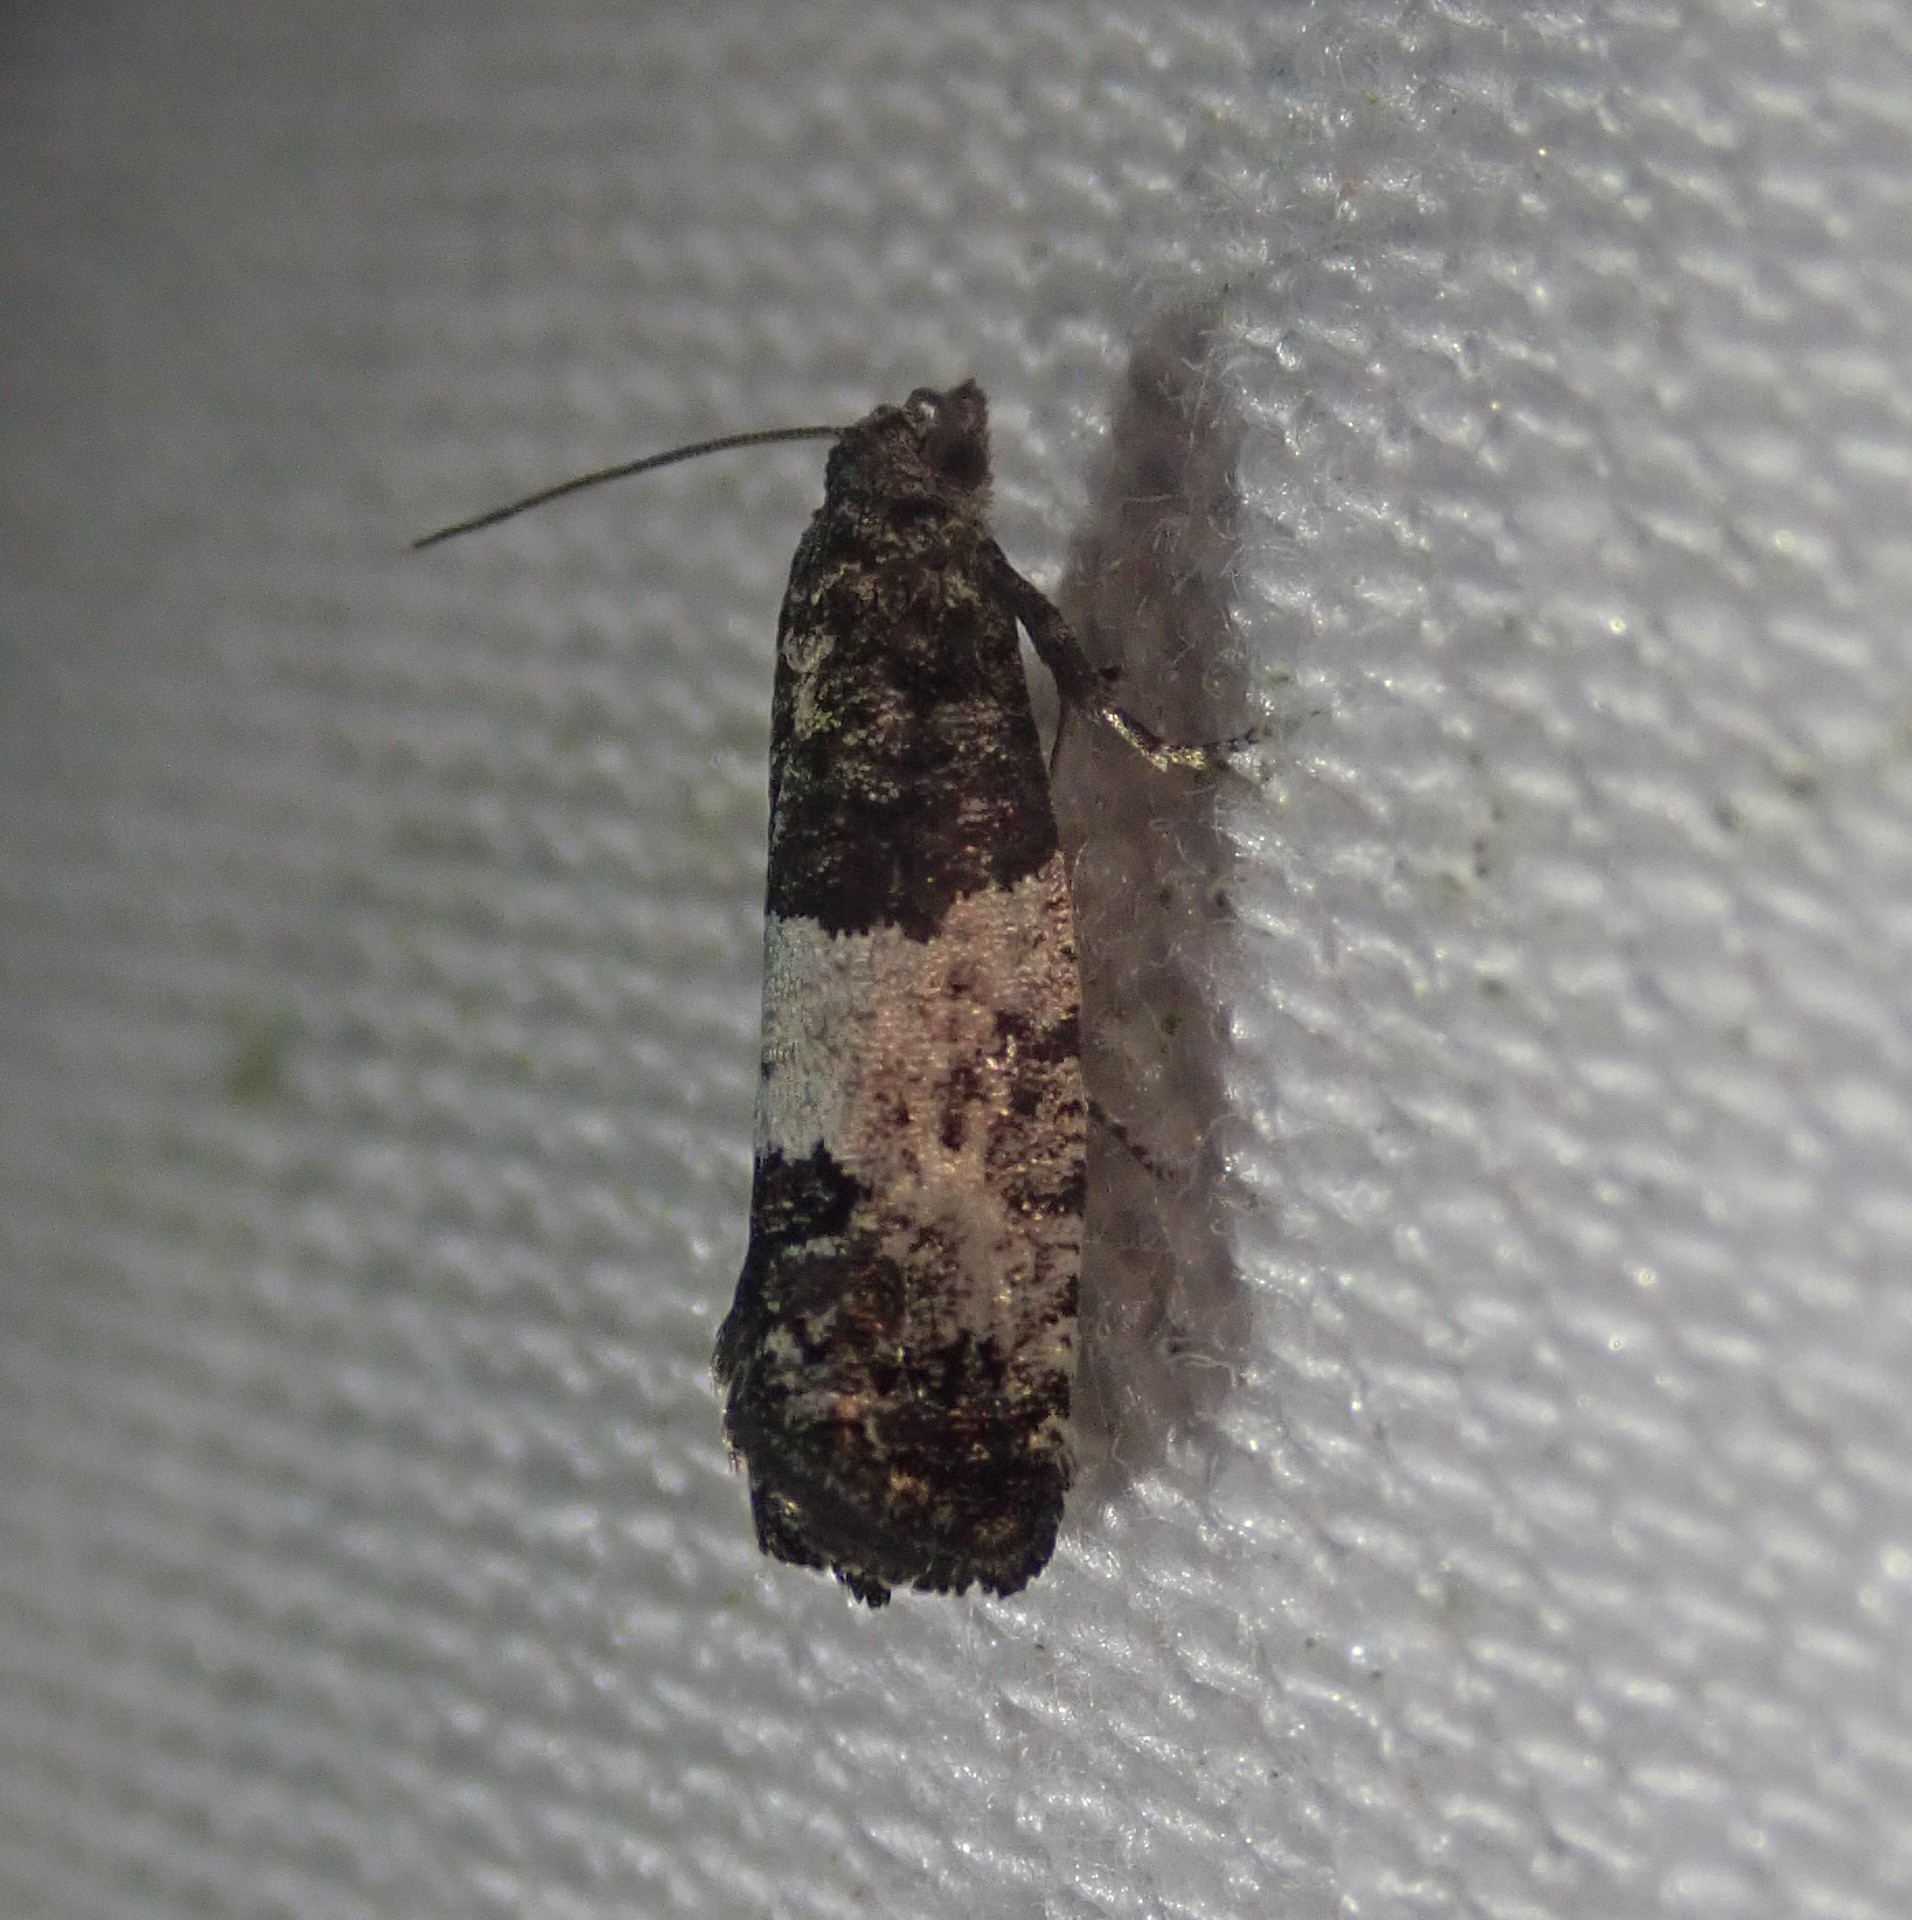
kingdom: Animalia
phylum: Arthropoda
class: Insecta
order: Lepidoptera
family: Tortricidae
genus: Spilonota
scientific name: Spilonota laricana
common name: Larch shoot tortricid moth
